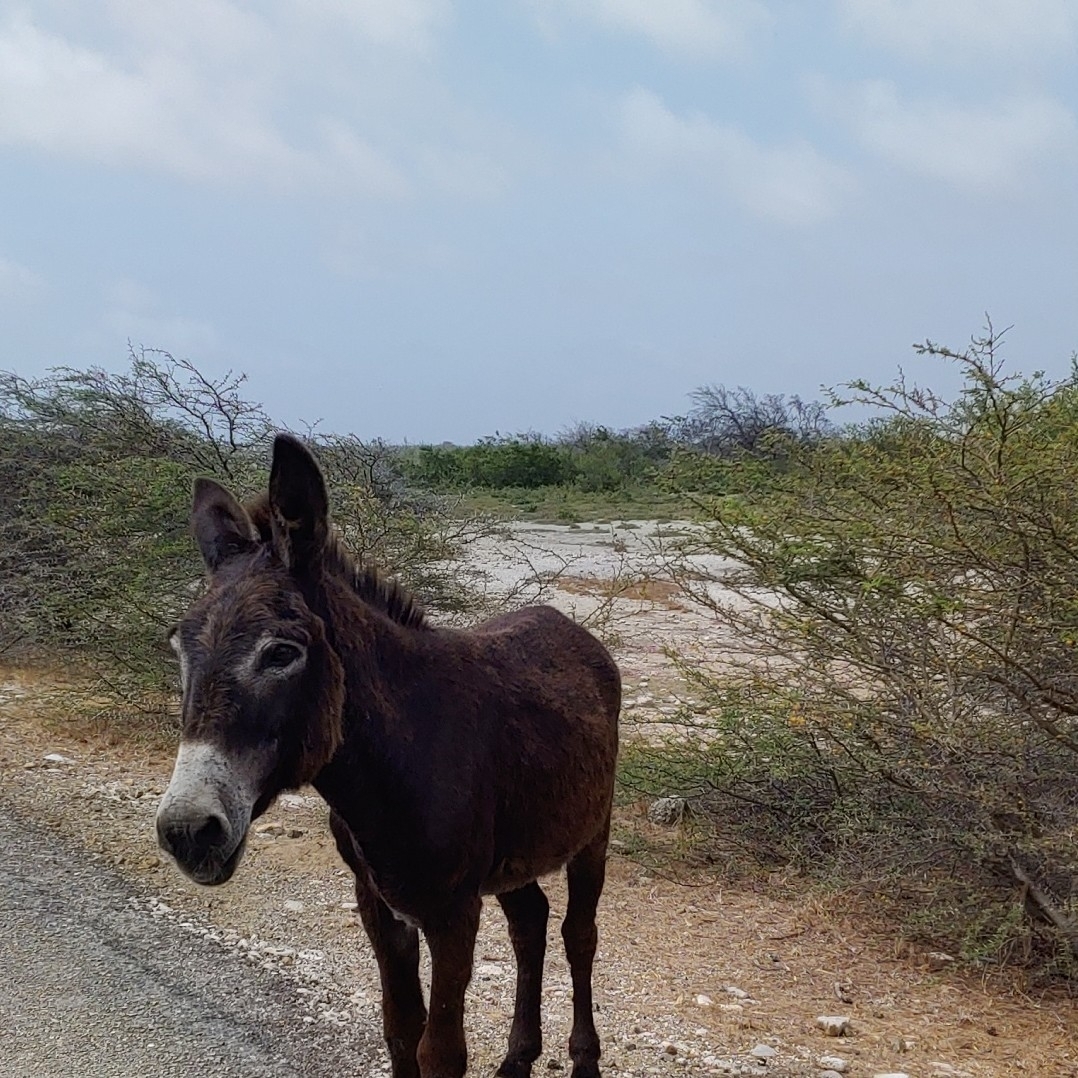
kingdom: Animalia
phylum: Chordata
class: Mammalia
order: Perissodactyla
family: Equidae
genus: Equus
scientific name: Equus asinus
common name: Ass
